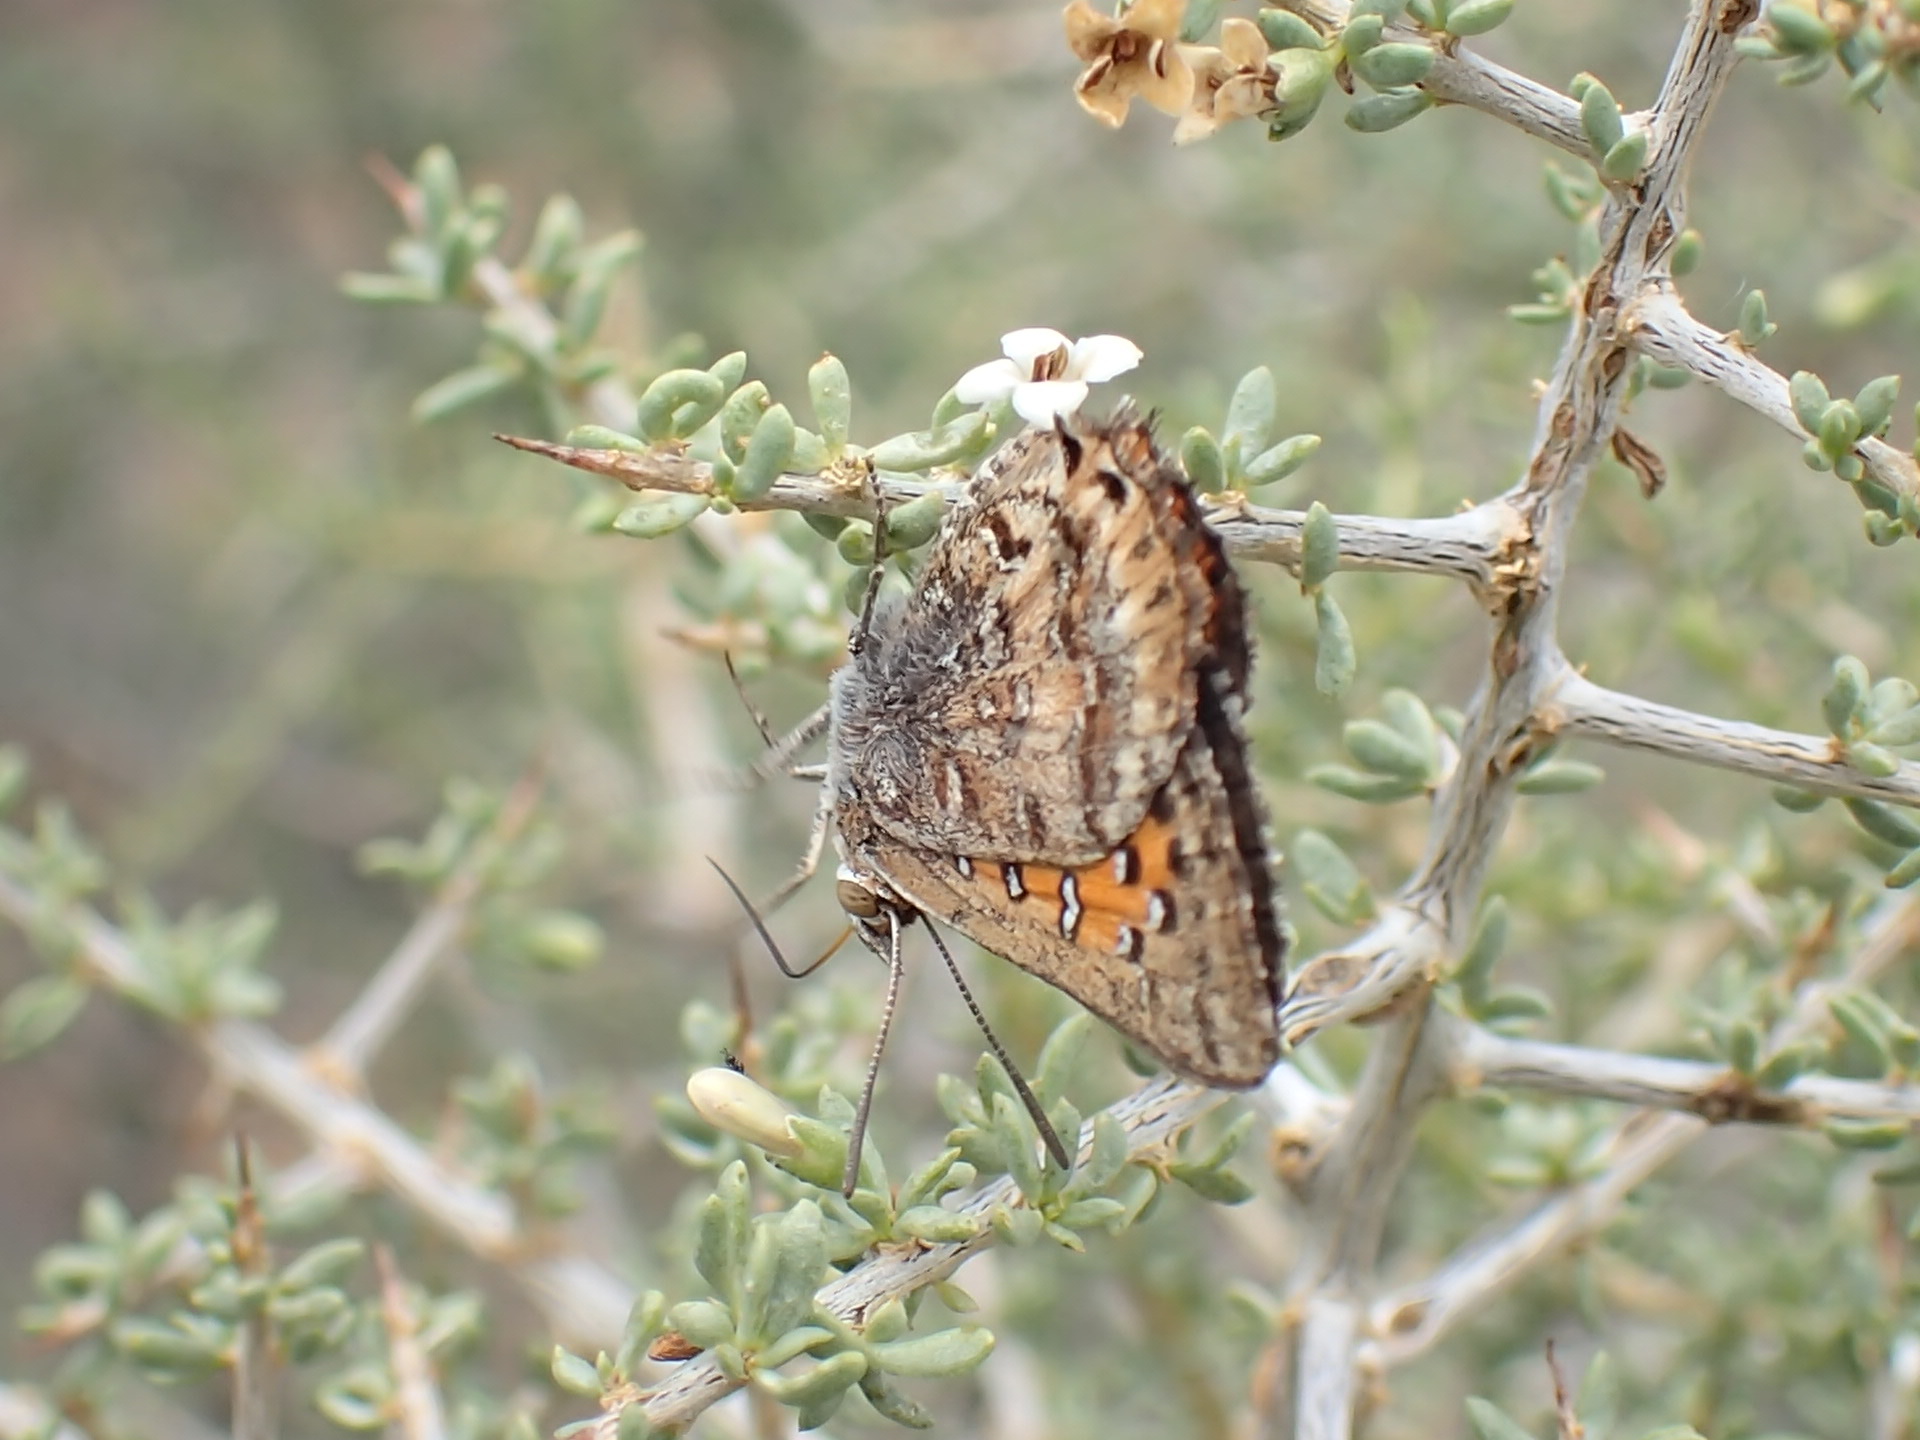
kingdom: Animalia
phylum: Arthropoda
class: Insecta
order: Lepidoptera
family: Lycaenidae
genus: Aloeides
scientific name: Aloeides pierus
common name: Dull copper
